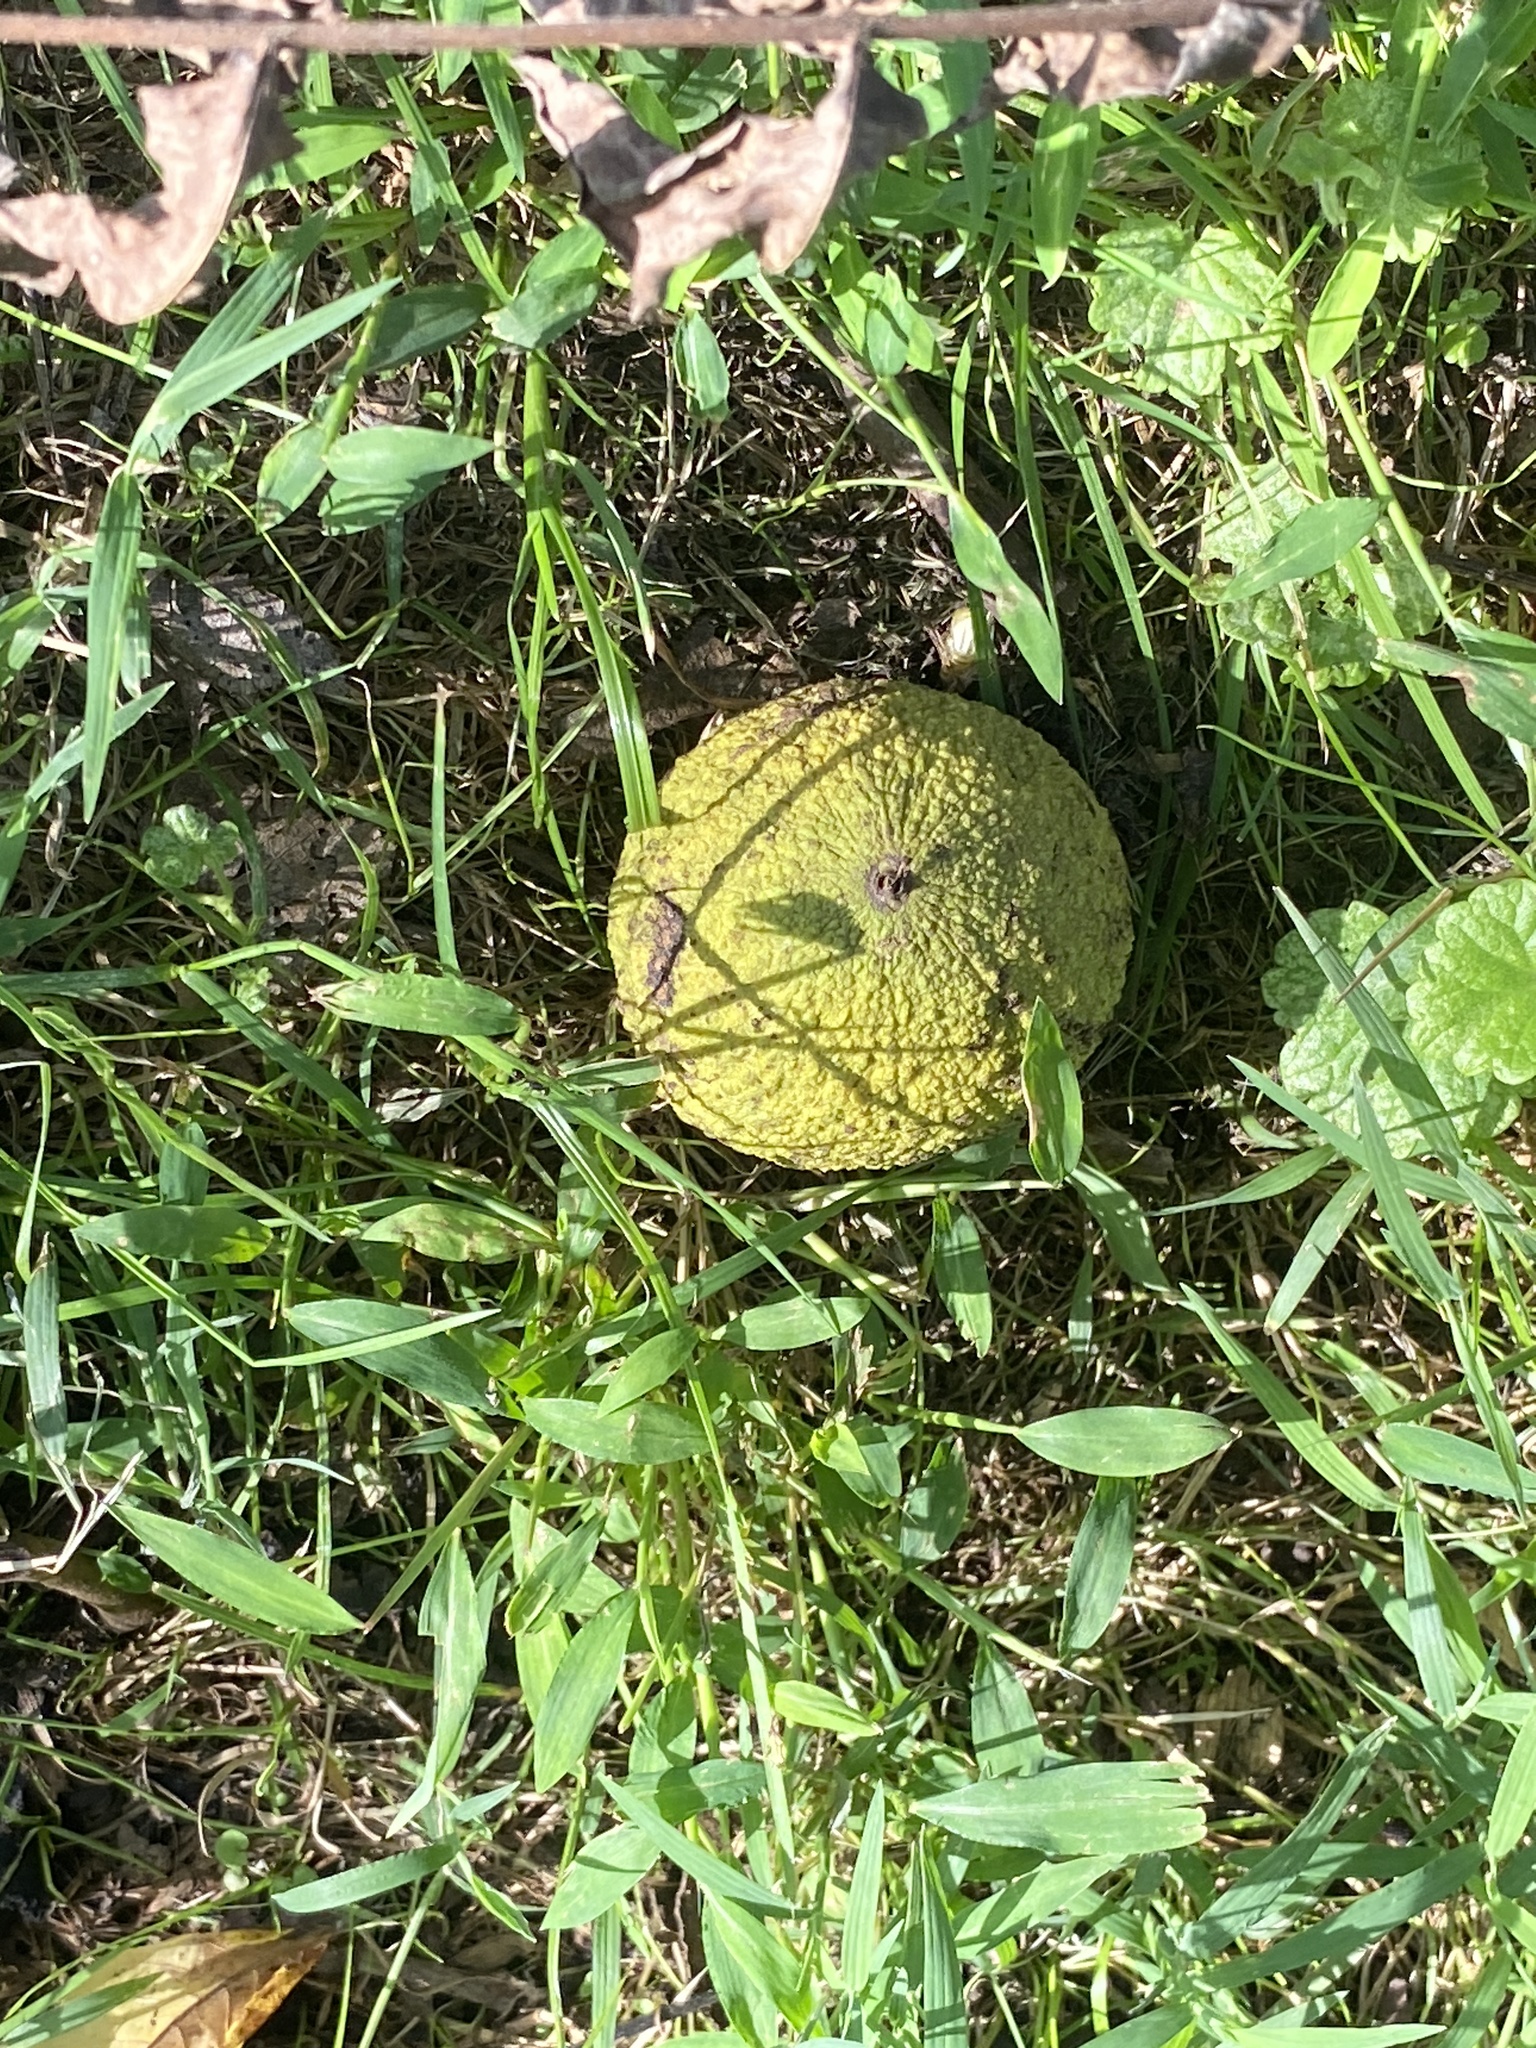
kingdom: Plantae
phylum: Tracheophyta
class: Magnoliopsida
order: Fagales
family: Juglandaceae
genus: Juglans
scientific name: Juglans nigra
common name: Black walnut
